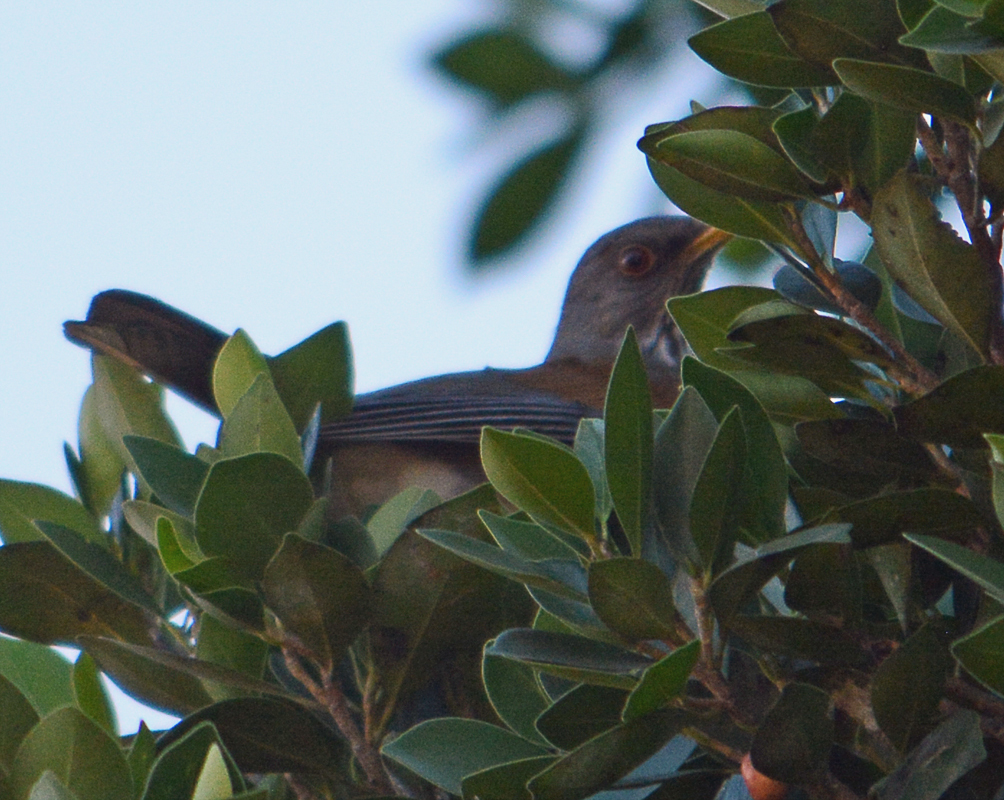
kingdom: Animalia
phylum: Chordata
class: Aves
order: Passeriformes
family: Turdidae
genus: Turdus
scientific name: Turdus rufopalliatus
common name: Rufous-backed robin
